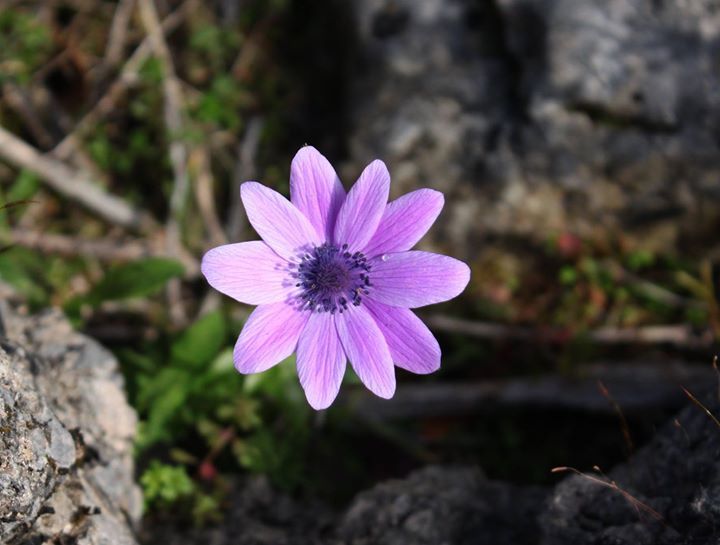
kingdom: Plantae
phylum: Tracheophyta
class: Magnoliopsida
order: Ranunculales
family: Ranunculaceae
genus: Anemone
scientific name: Anemone pavonina
